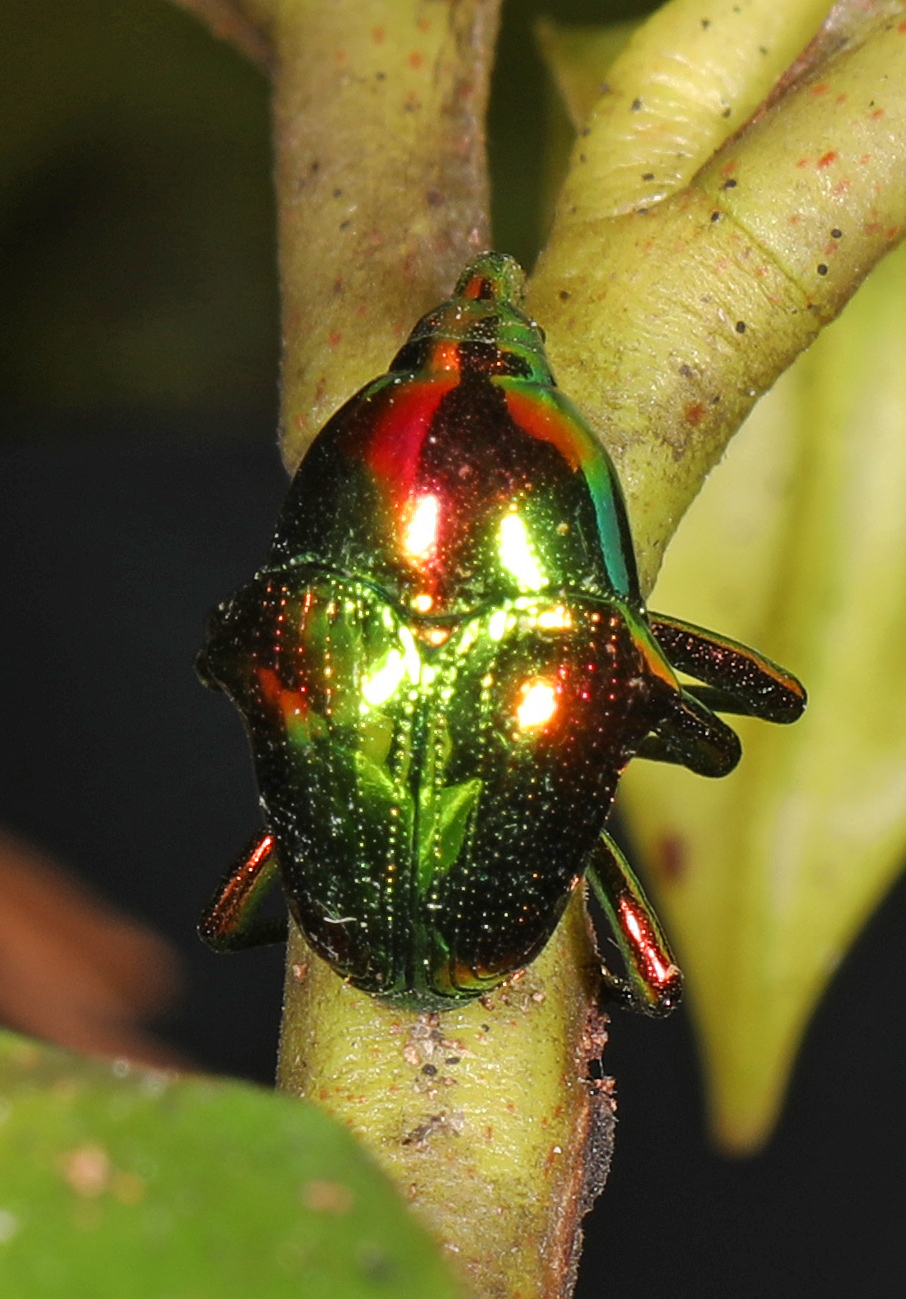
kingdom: Animalia
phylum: Arthropoda
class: Insecta
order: Coleoptera
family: Eurhynchidae
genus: Eurhinus
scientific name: Eurhinus magnificus
